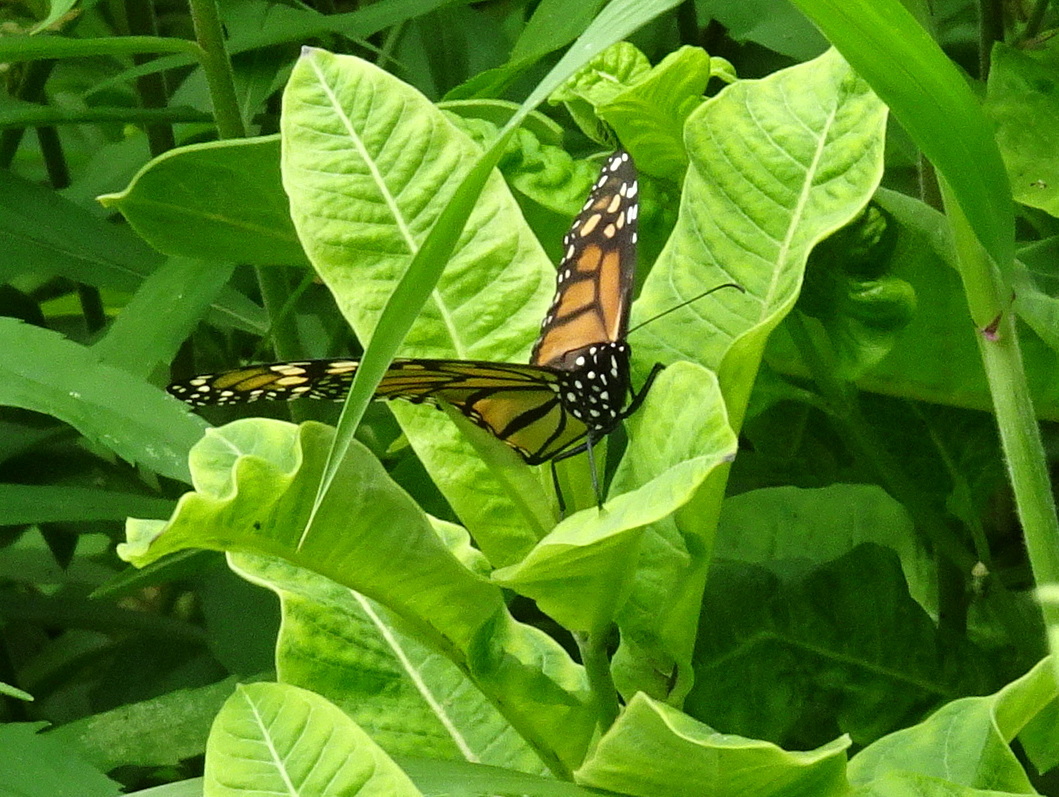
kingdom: Animalia
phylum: Arthropoda
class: Insecta
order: Lepidoptera
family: Nymphalidae
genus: Danaus
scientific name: Danaus plexippus
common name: Monarch
